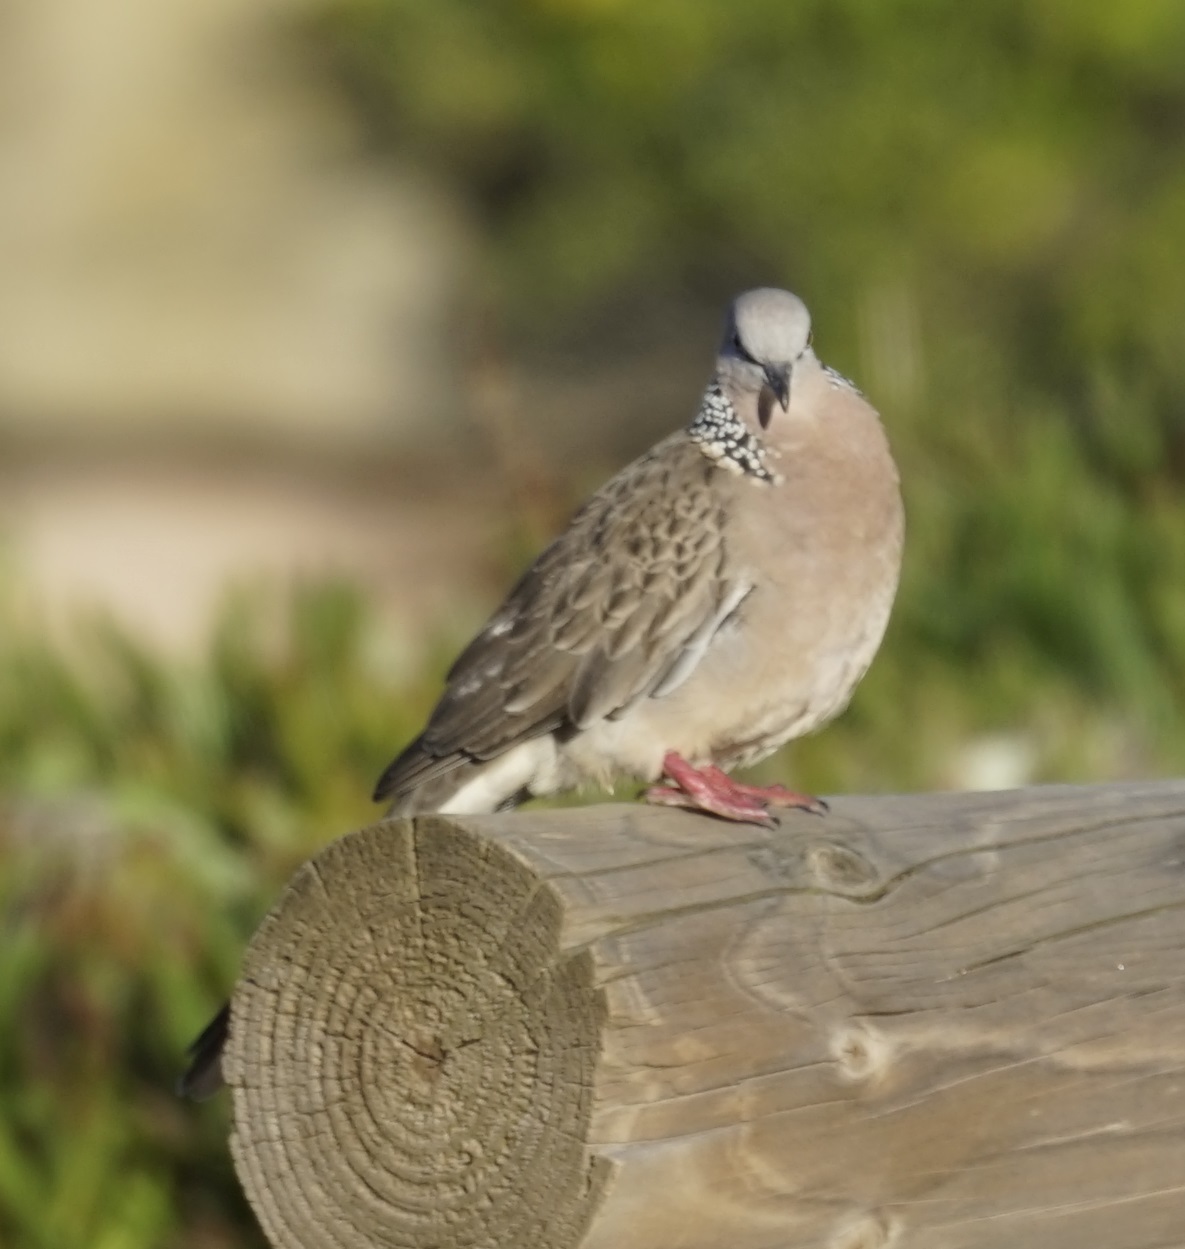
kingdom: Animalia
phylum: Chordata
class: Aves
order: Columbiformes
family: Columbidae
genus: Spilopelia
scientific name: Spilopelia chinensis
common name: Spotted dove
